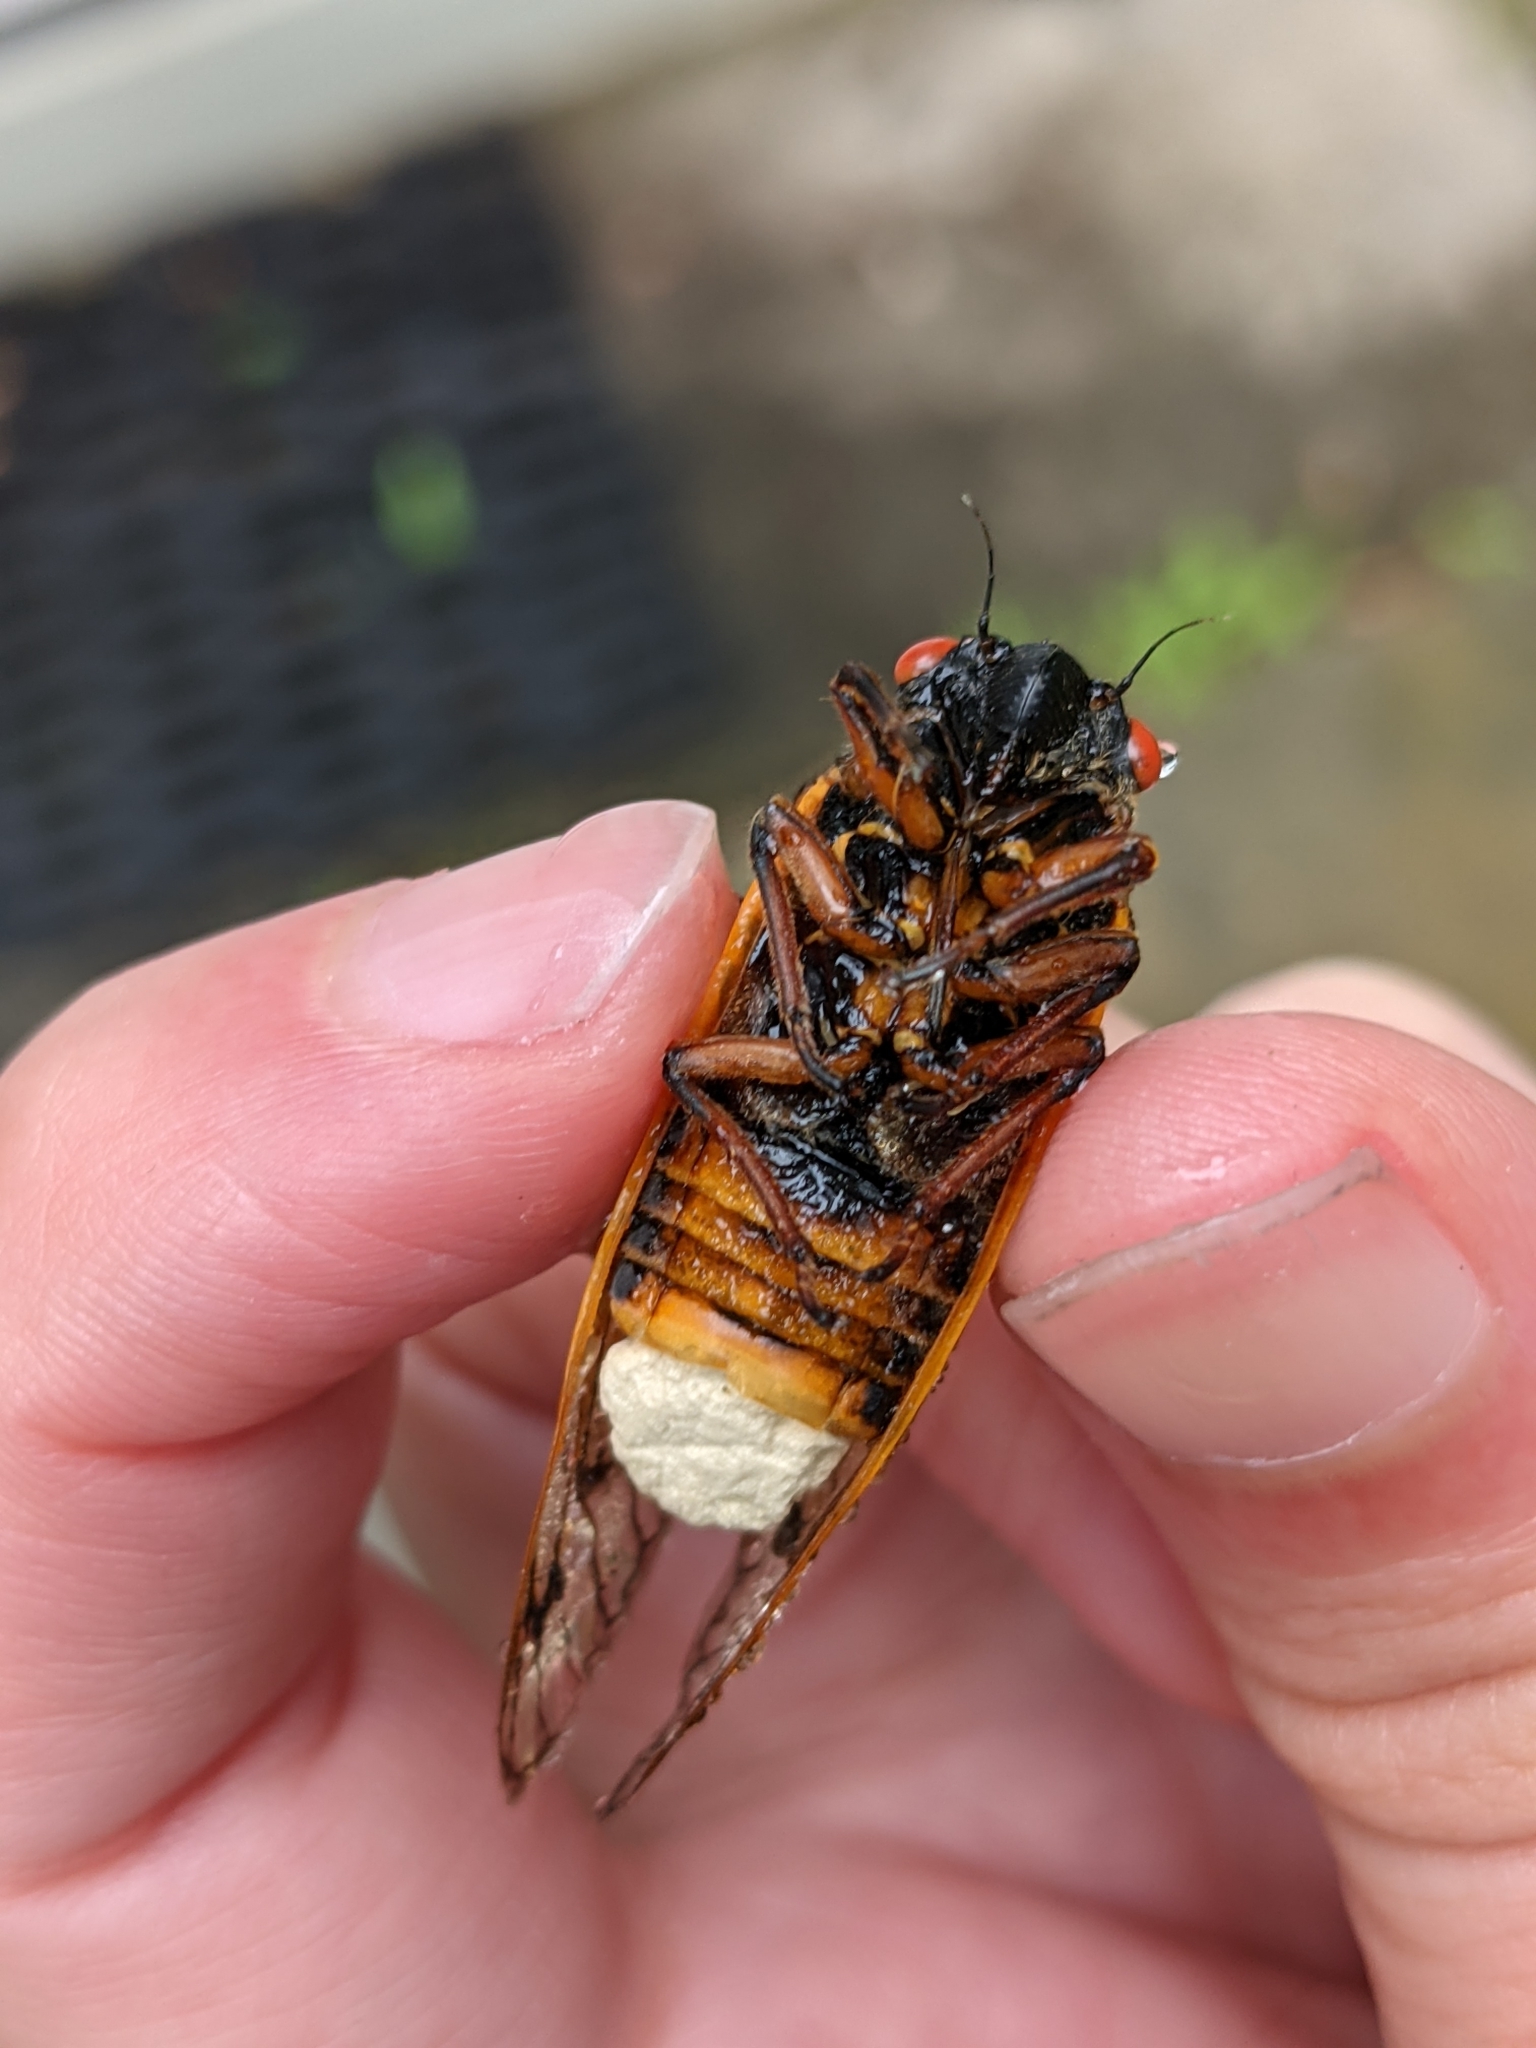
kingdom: Fungi
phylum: Entomophthoromycota
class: Entomophthoromycetes
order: Entomophthorales
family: Entomophthoraceae
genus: Massospora
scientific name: Massospora cicadina
